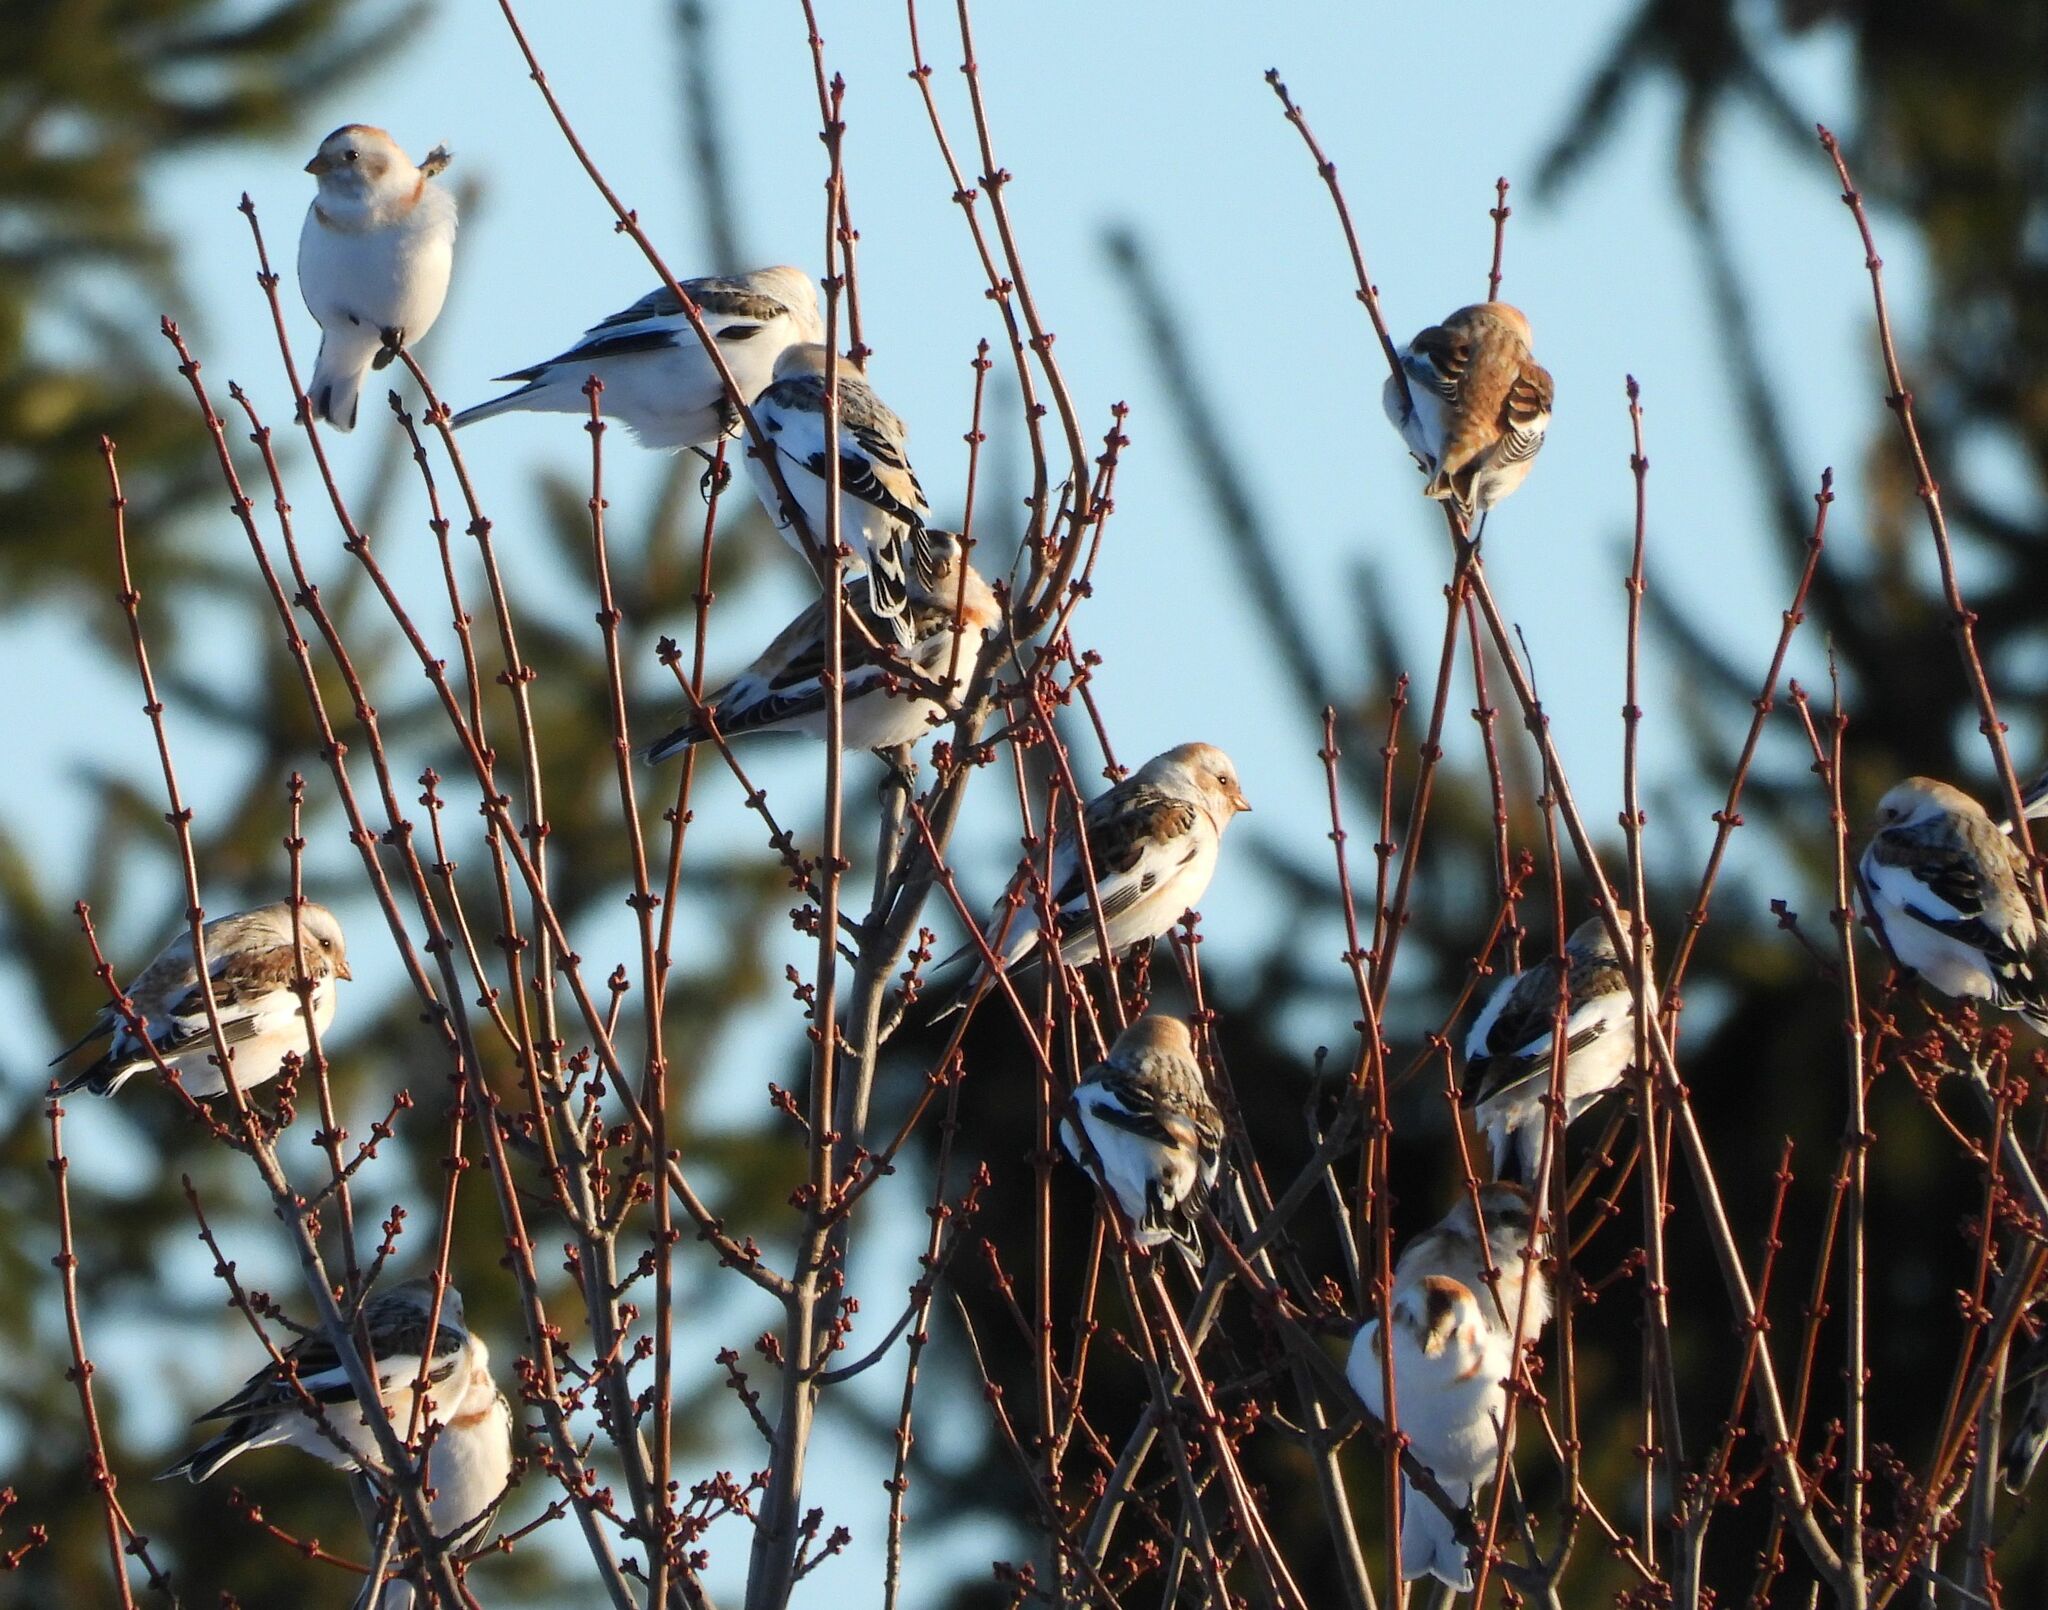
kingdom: Animalia
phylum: Chordata
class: Aves
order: Passeriformes
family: Calcariidae
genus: Plectrophenax
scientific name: Plectrophenax nivalis
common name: Snow bunting
